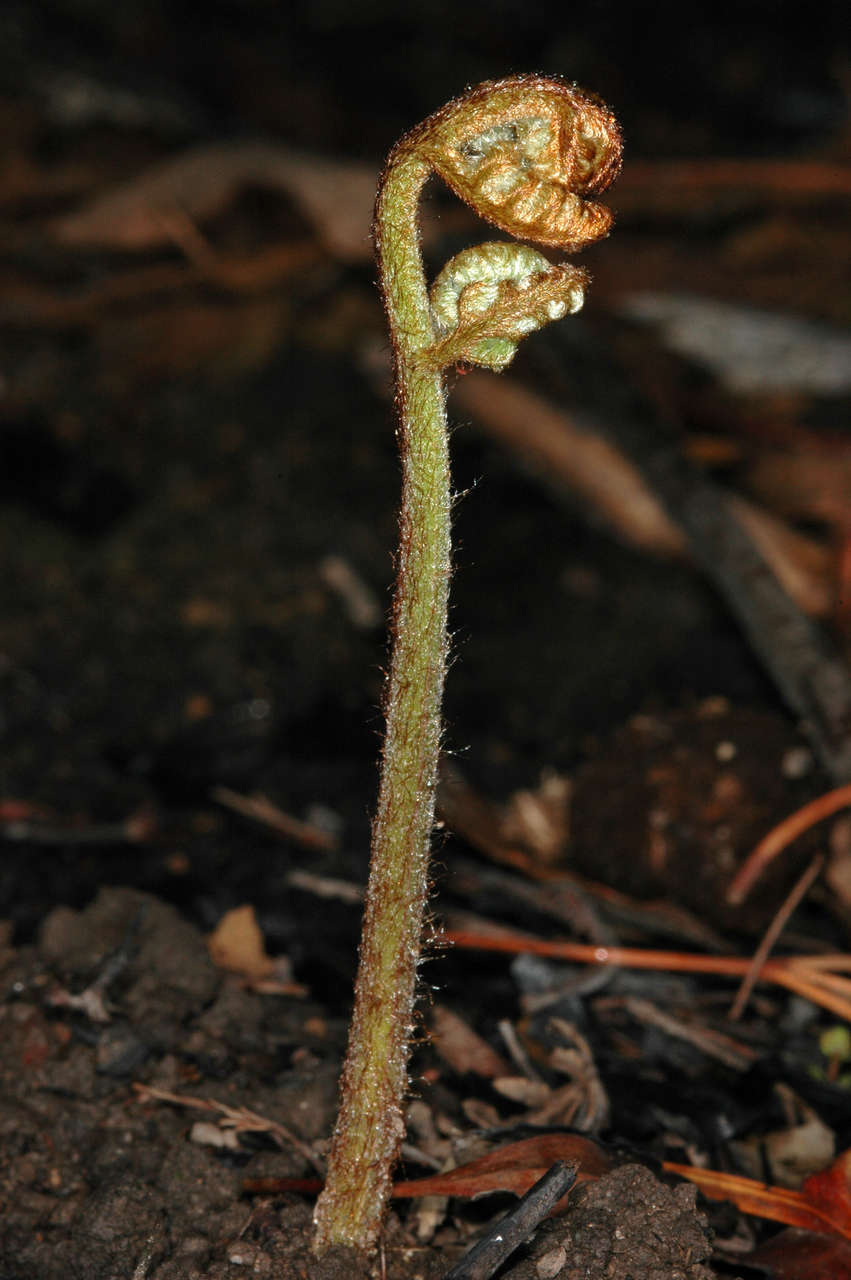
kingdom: Plantae
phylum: Tracheophyta
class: Polypodiopsida
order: Polypodiales
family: Dennstaedtiaceae
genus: Pteridium
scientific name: Pteridium esculentum
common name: Bracken fern
